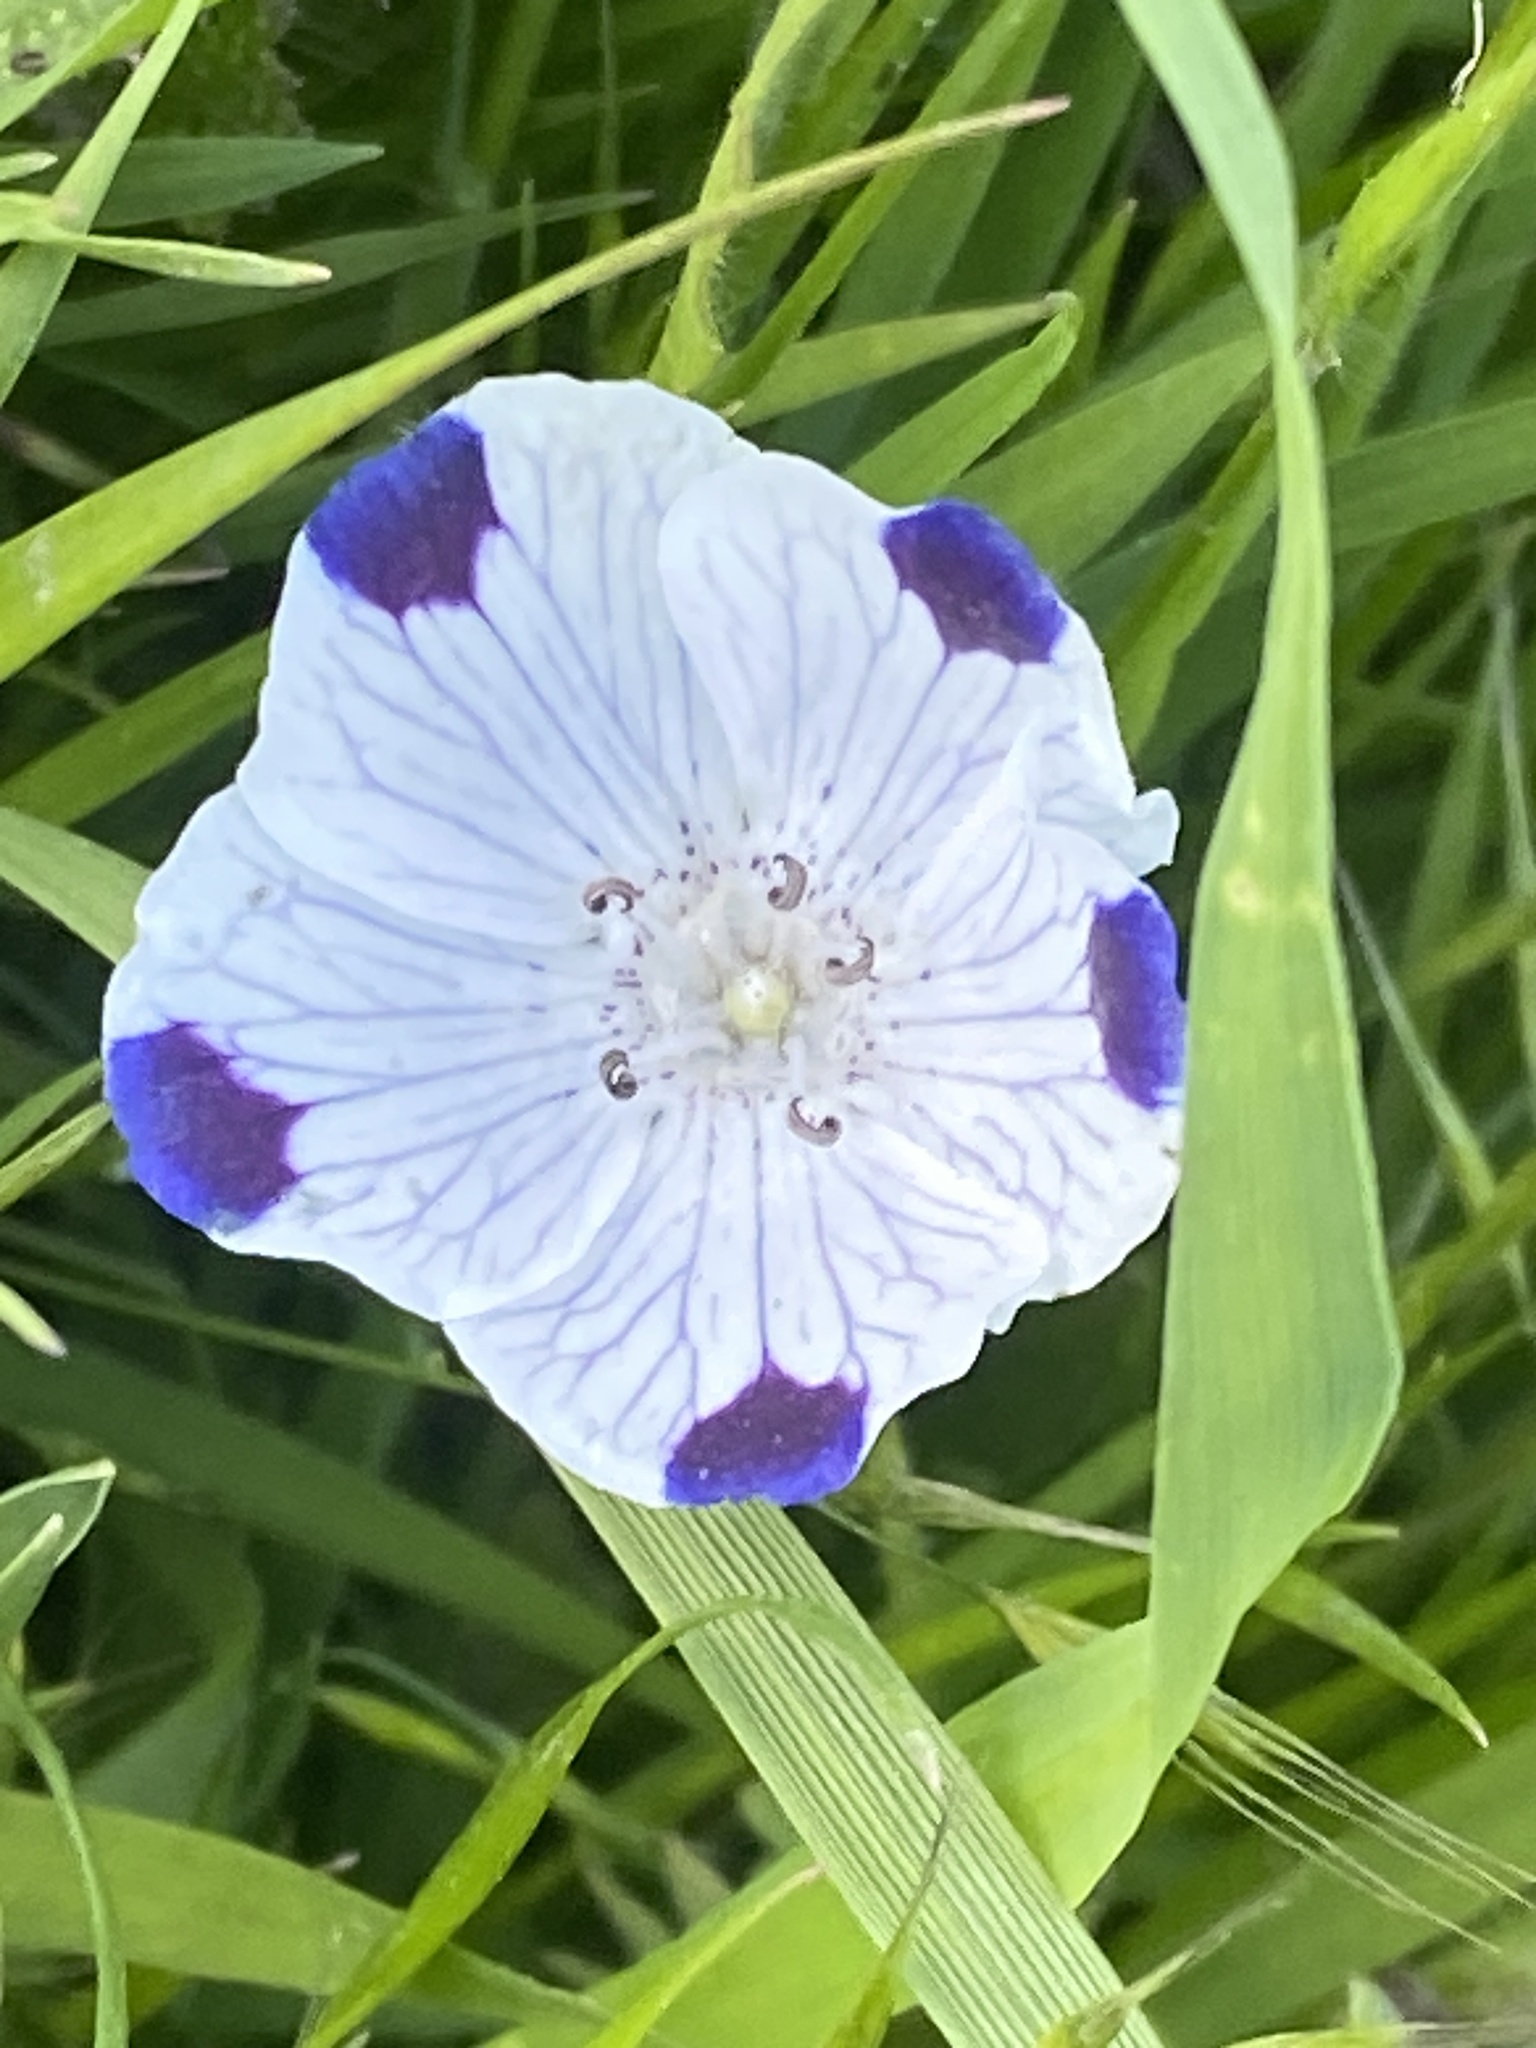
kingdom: Plantae
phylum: Tracheophyta
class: Magnoliopsida
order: Boraginales
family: Hydrophyllaceae
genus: Nemophila
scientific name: Nemophila maculata
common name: Fivespot
